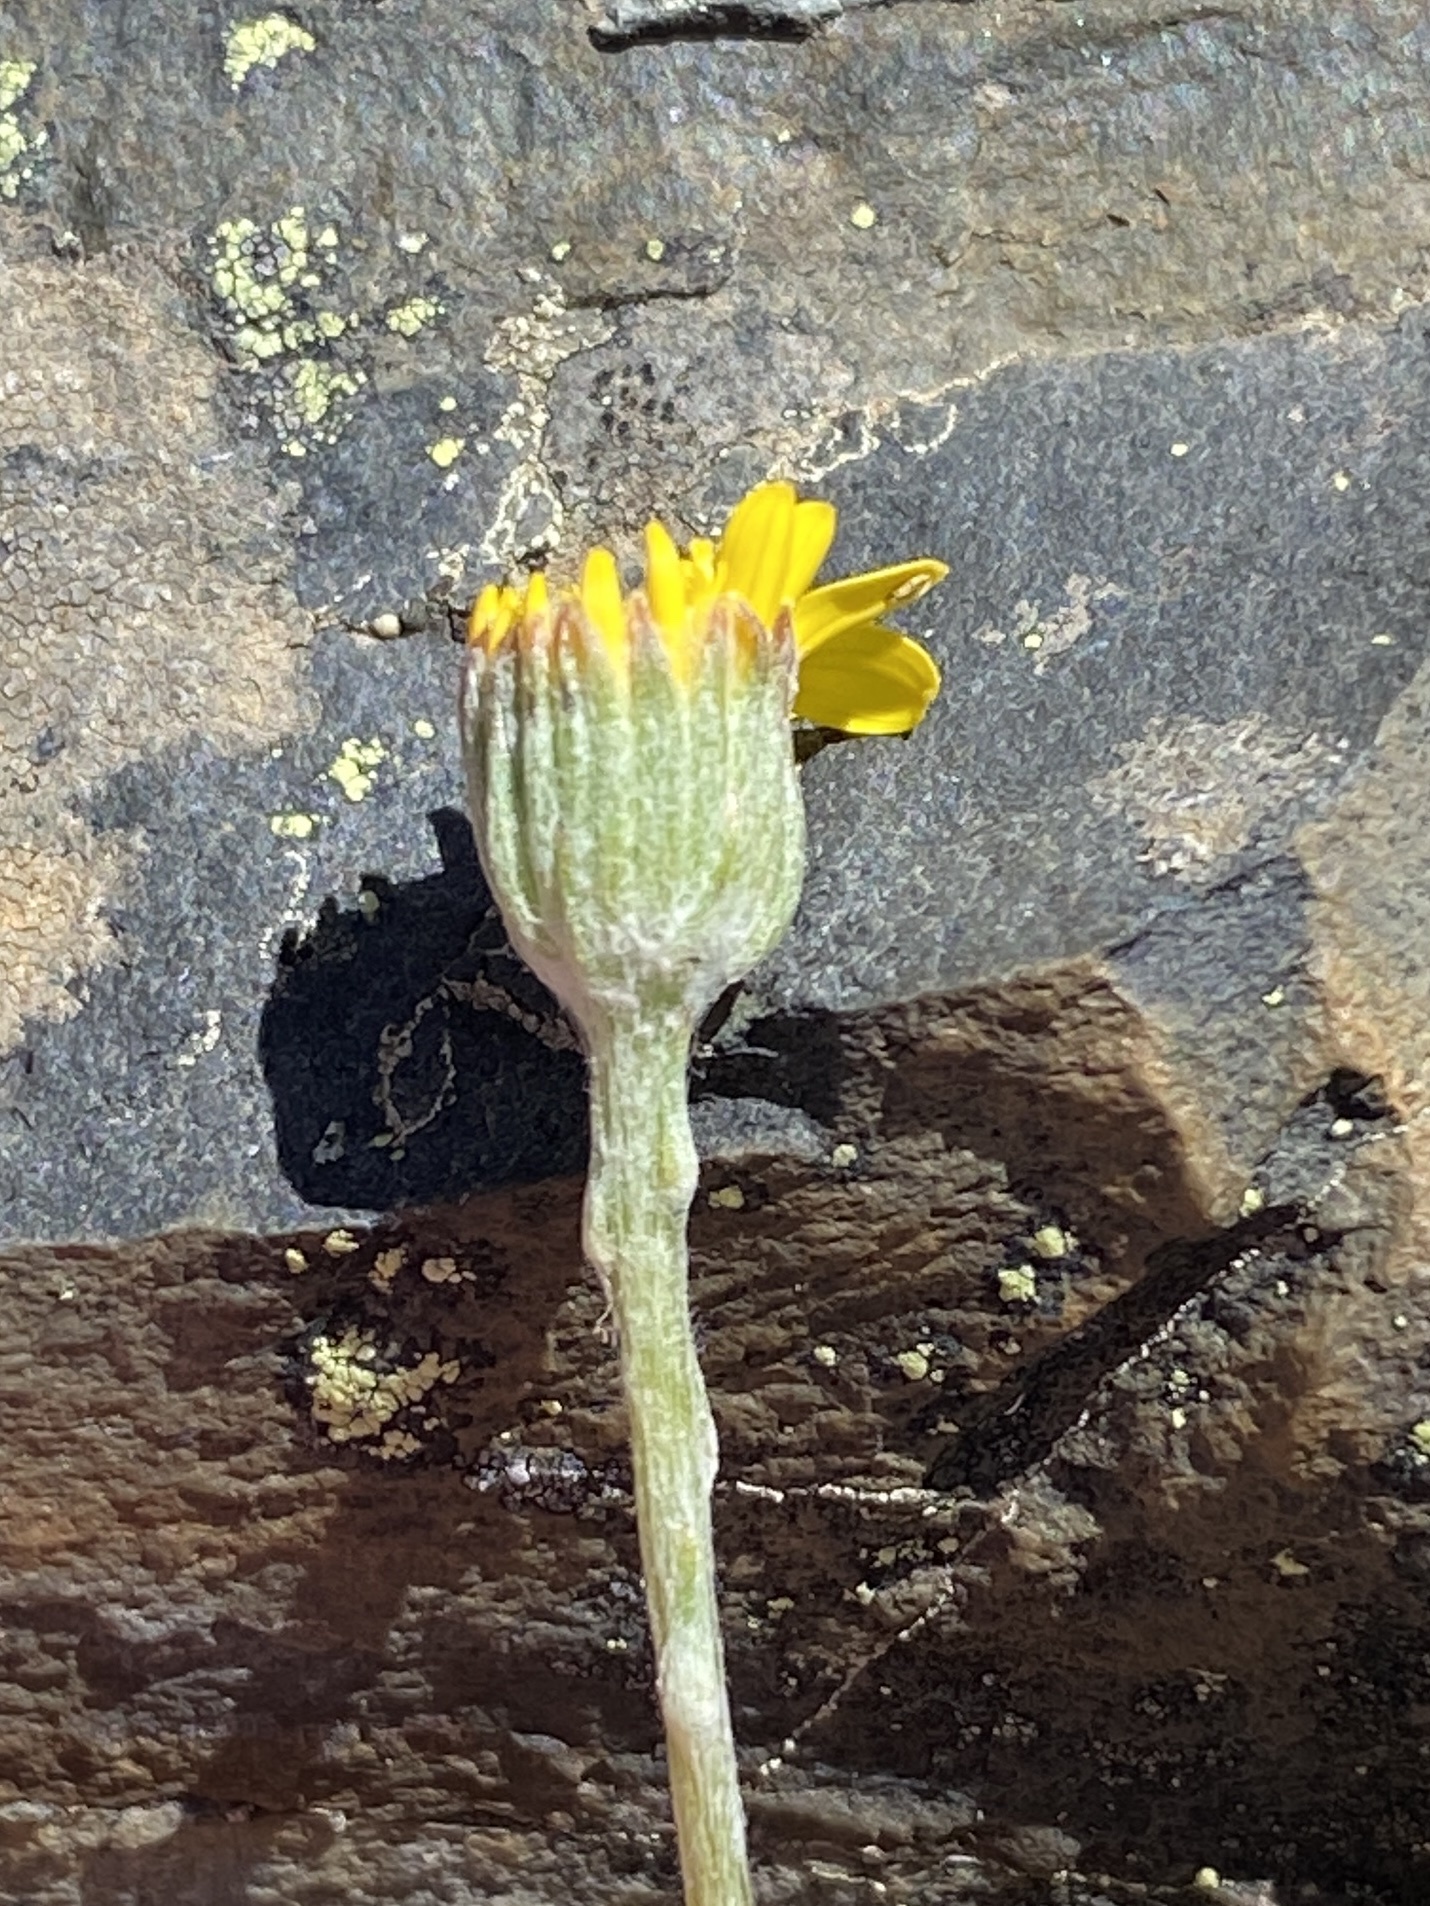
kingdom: Plantae
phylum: Tracheophyta
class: Magnoliopsida
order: Asterales
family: Asteraceae
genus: Senecio
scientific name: Senecio albifolius
